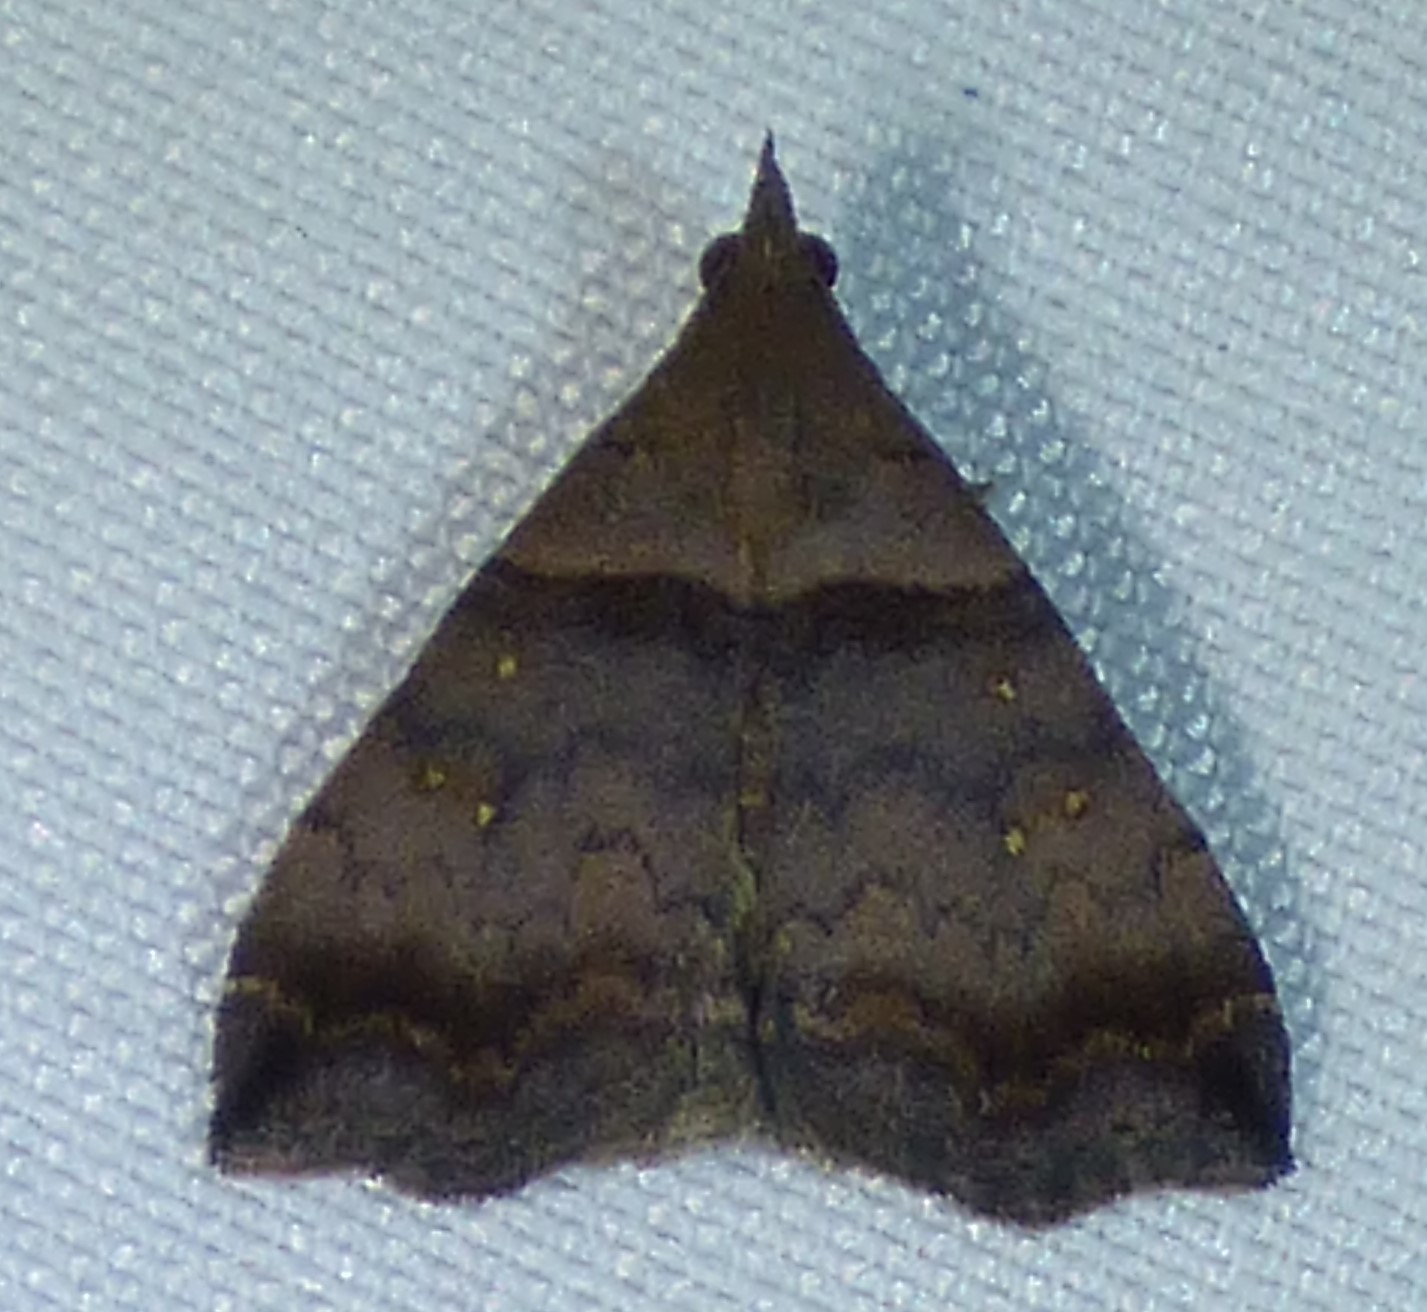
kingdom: Animalia
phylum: Arthropoda
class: Insecta
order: Lepidoptera
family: Erebidae
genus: Lascoria
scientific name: Lascoria ambigualis
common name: Ambiguous moth
